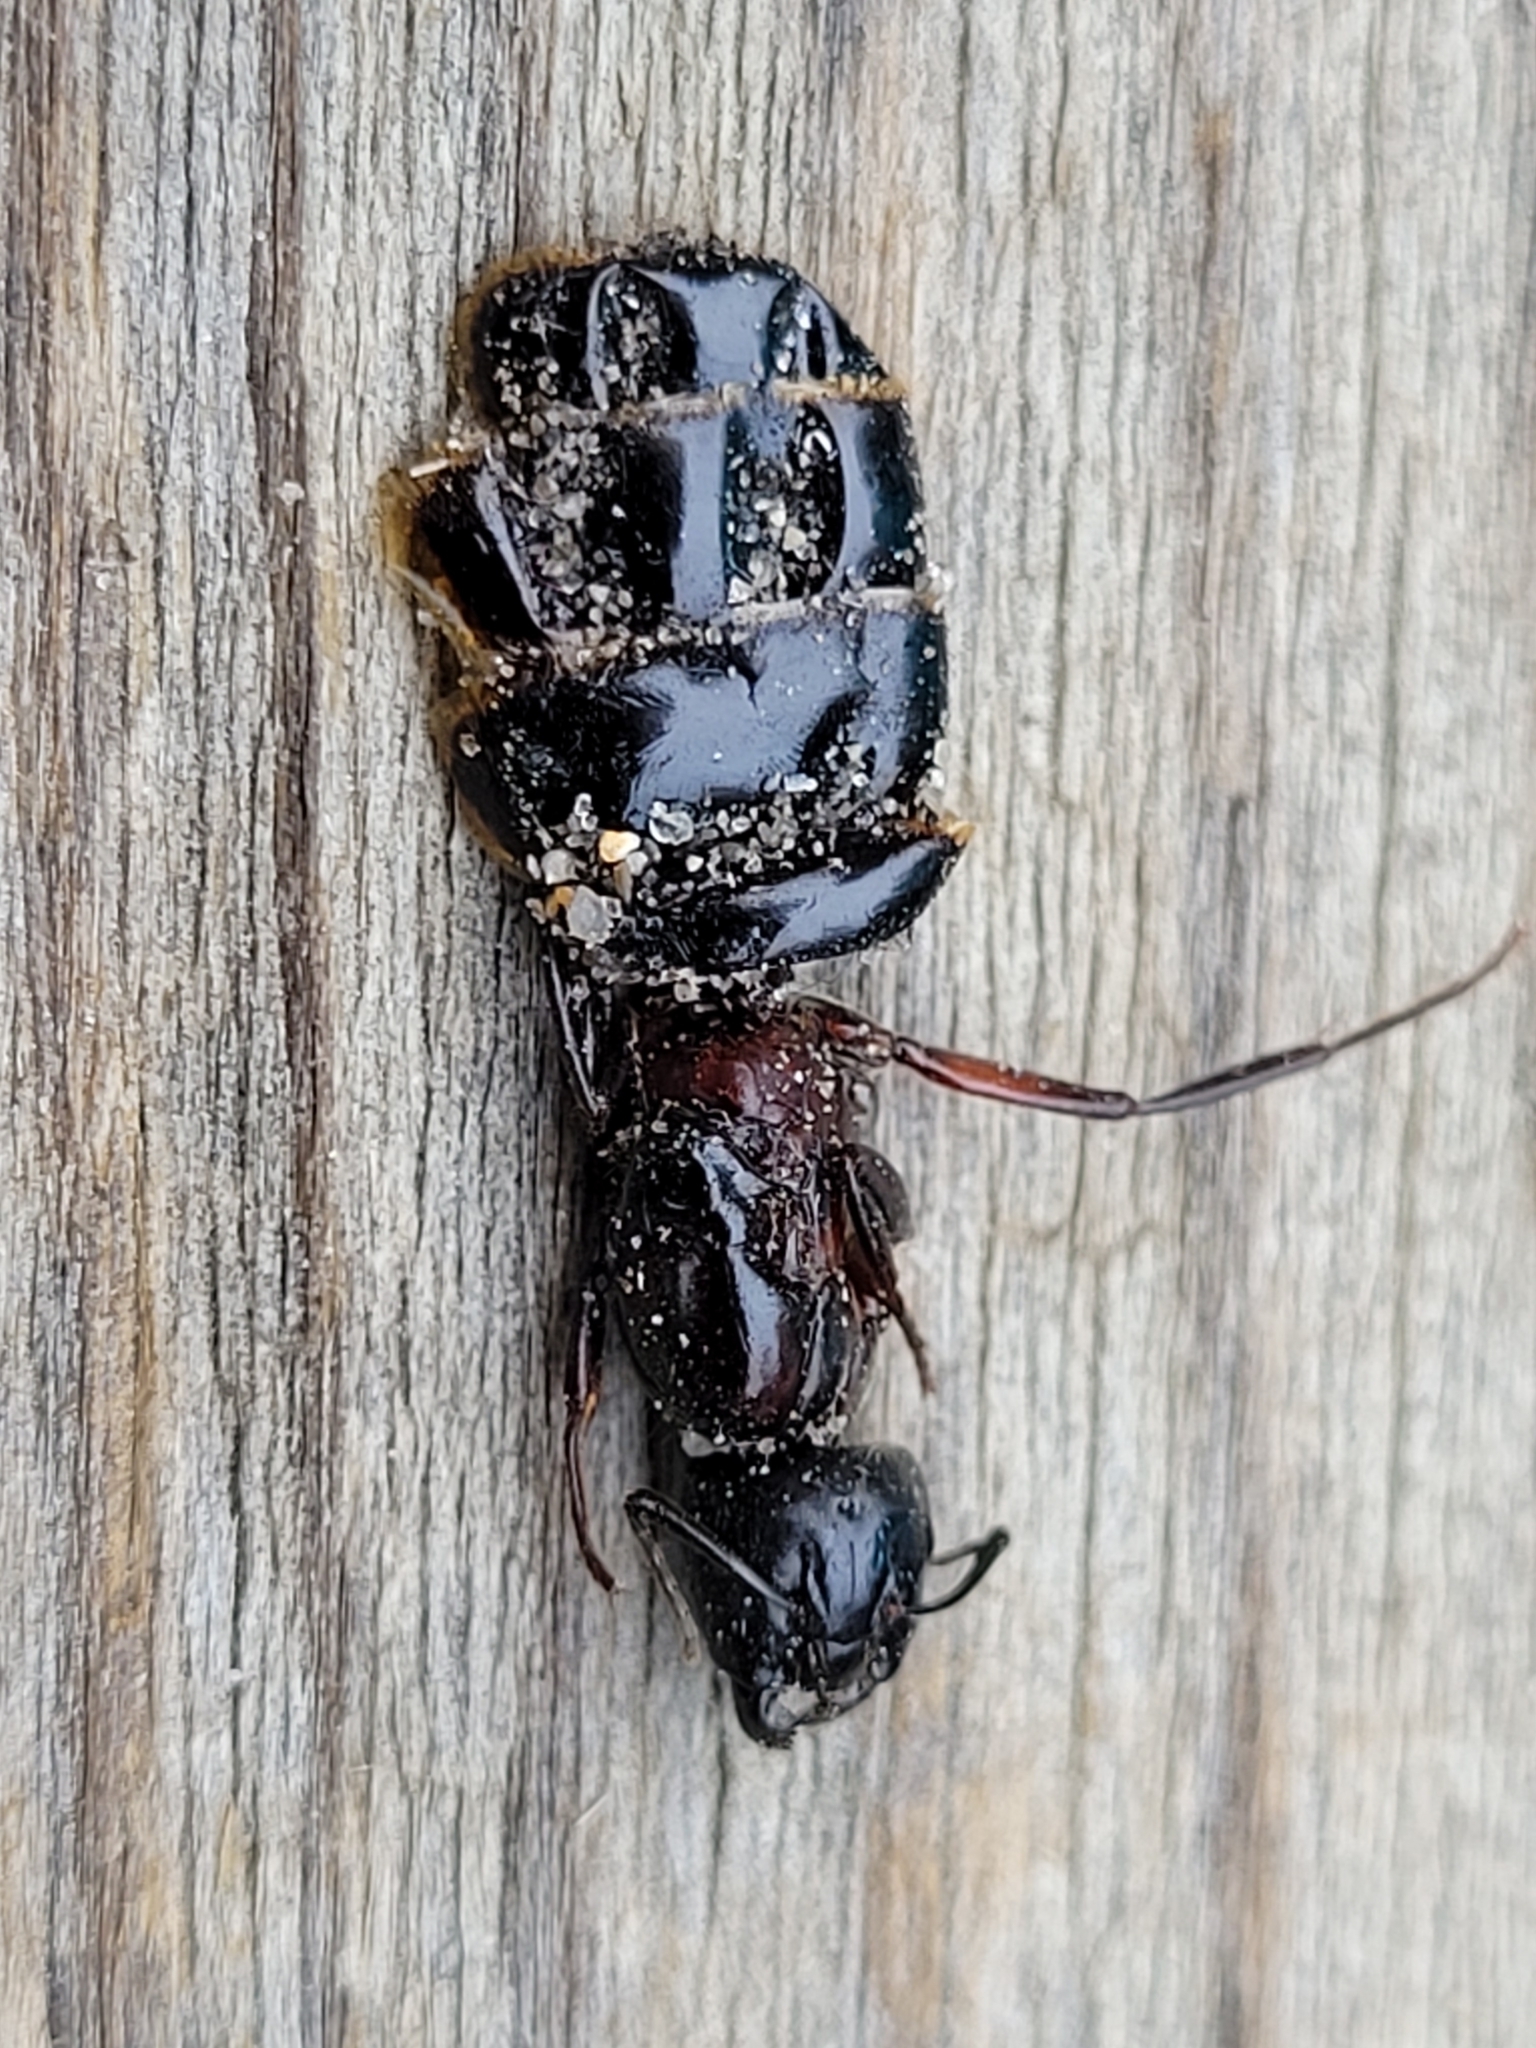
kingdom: Animalia
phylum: Arthropoda
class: Insecta
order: Hymenoptera
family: Formicidae
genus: Camponotus
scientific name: Camponotus novaeboracensis
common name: New york carpenter ant
